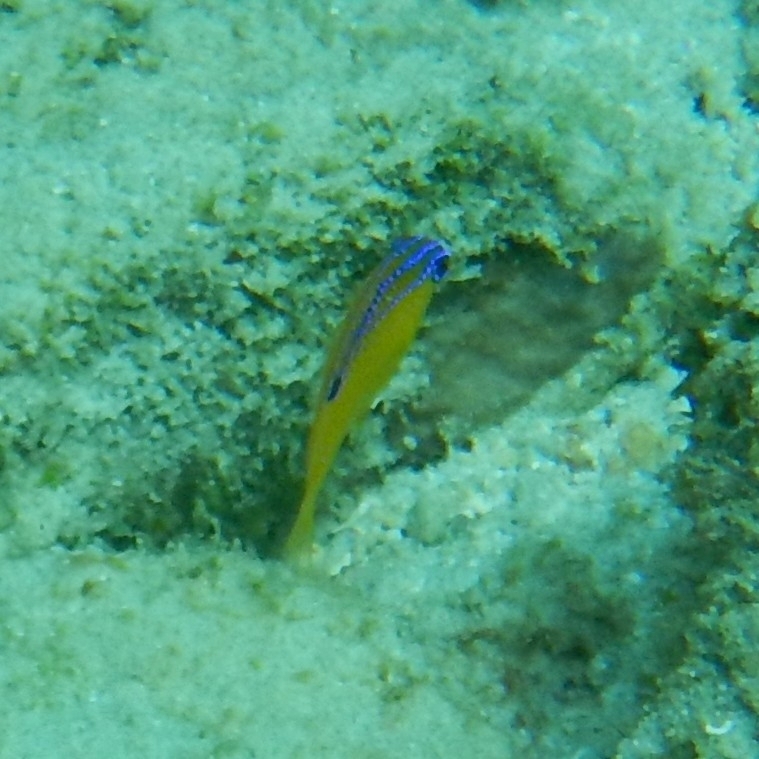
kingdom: Animalia
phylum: Chordata
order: Perciformes
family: Pomacentridae
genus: Stegastes
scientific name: Stegastes diencaeus
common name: Longfin damselfish
